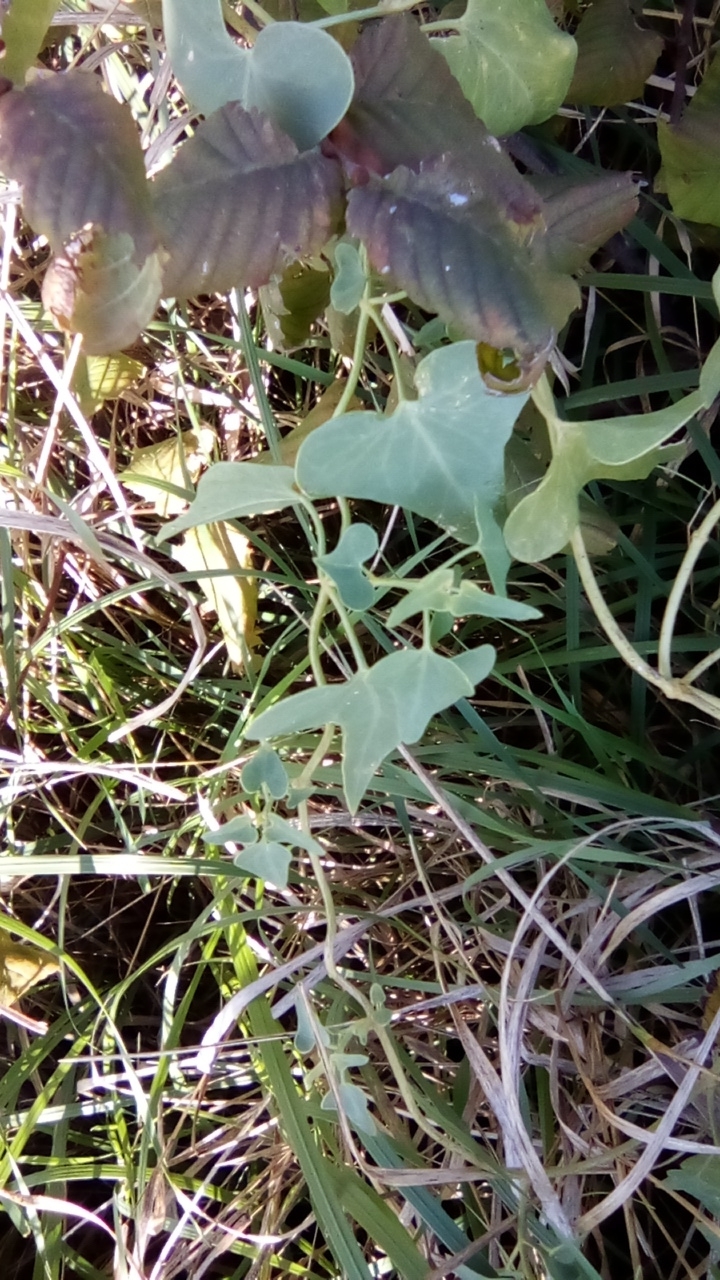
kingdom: Plantae
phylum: Tracheophyta
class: Magnoliopsida
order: Gentianales
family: Apocynaceae
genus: Cynanchum
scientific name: Cynanchum acutum
